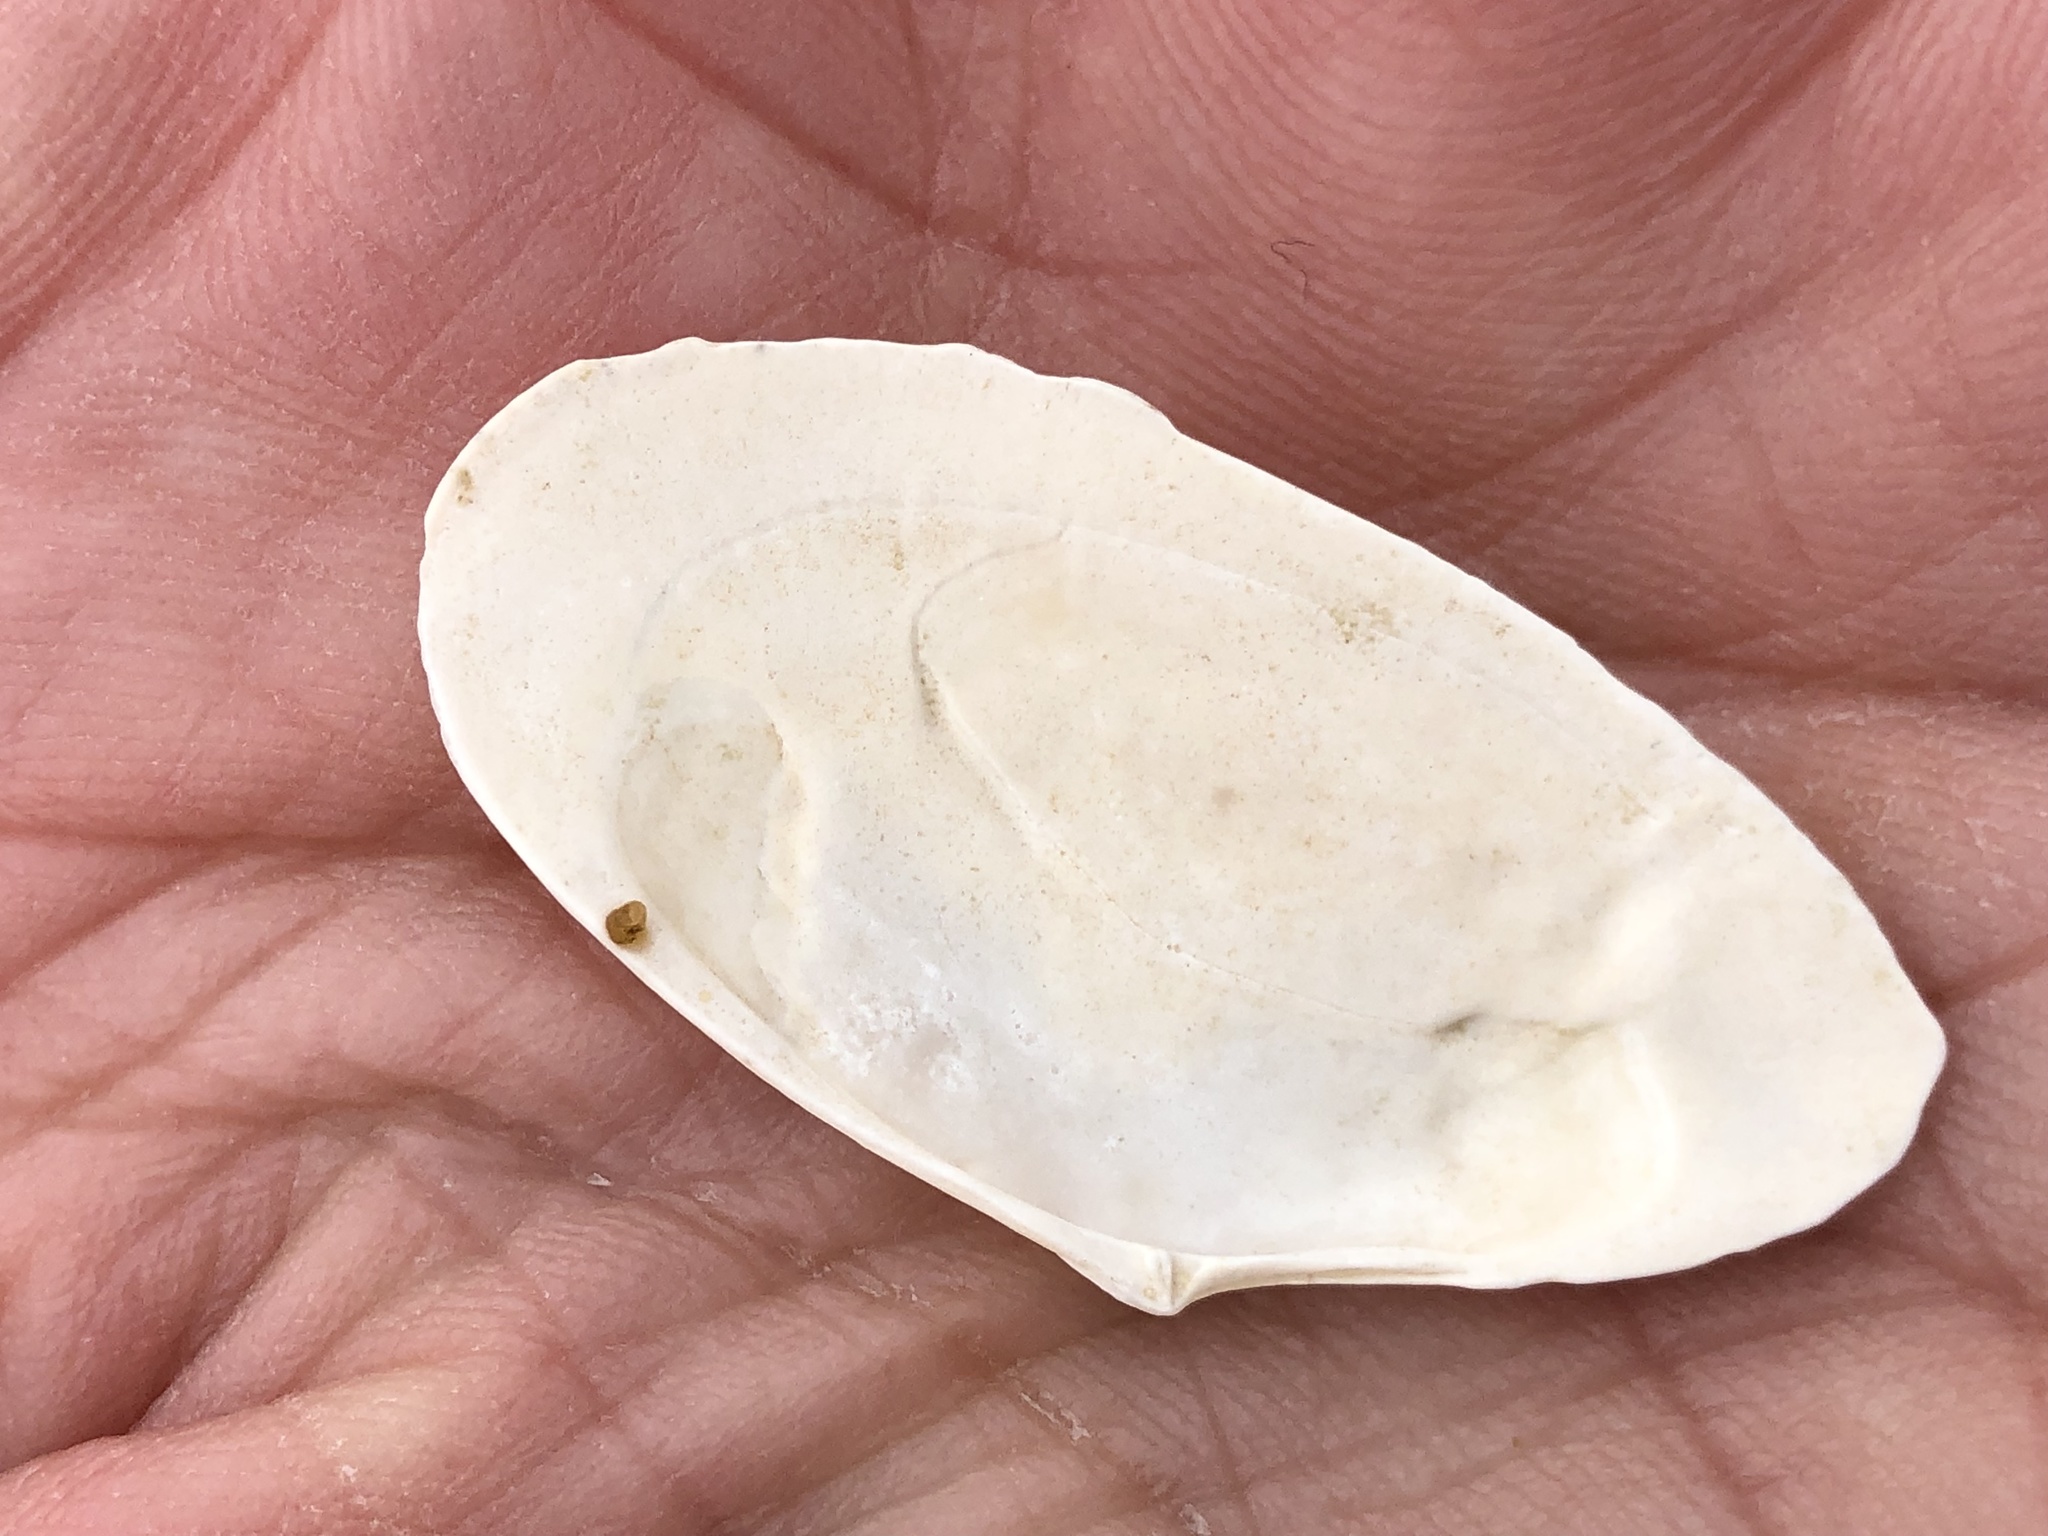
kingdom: Animalia
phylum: Mollusca
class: Bivalvia
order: Cardiida
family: Tellinidae
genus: Megangulus
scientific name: Megangulus bodegensis
